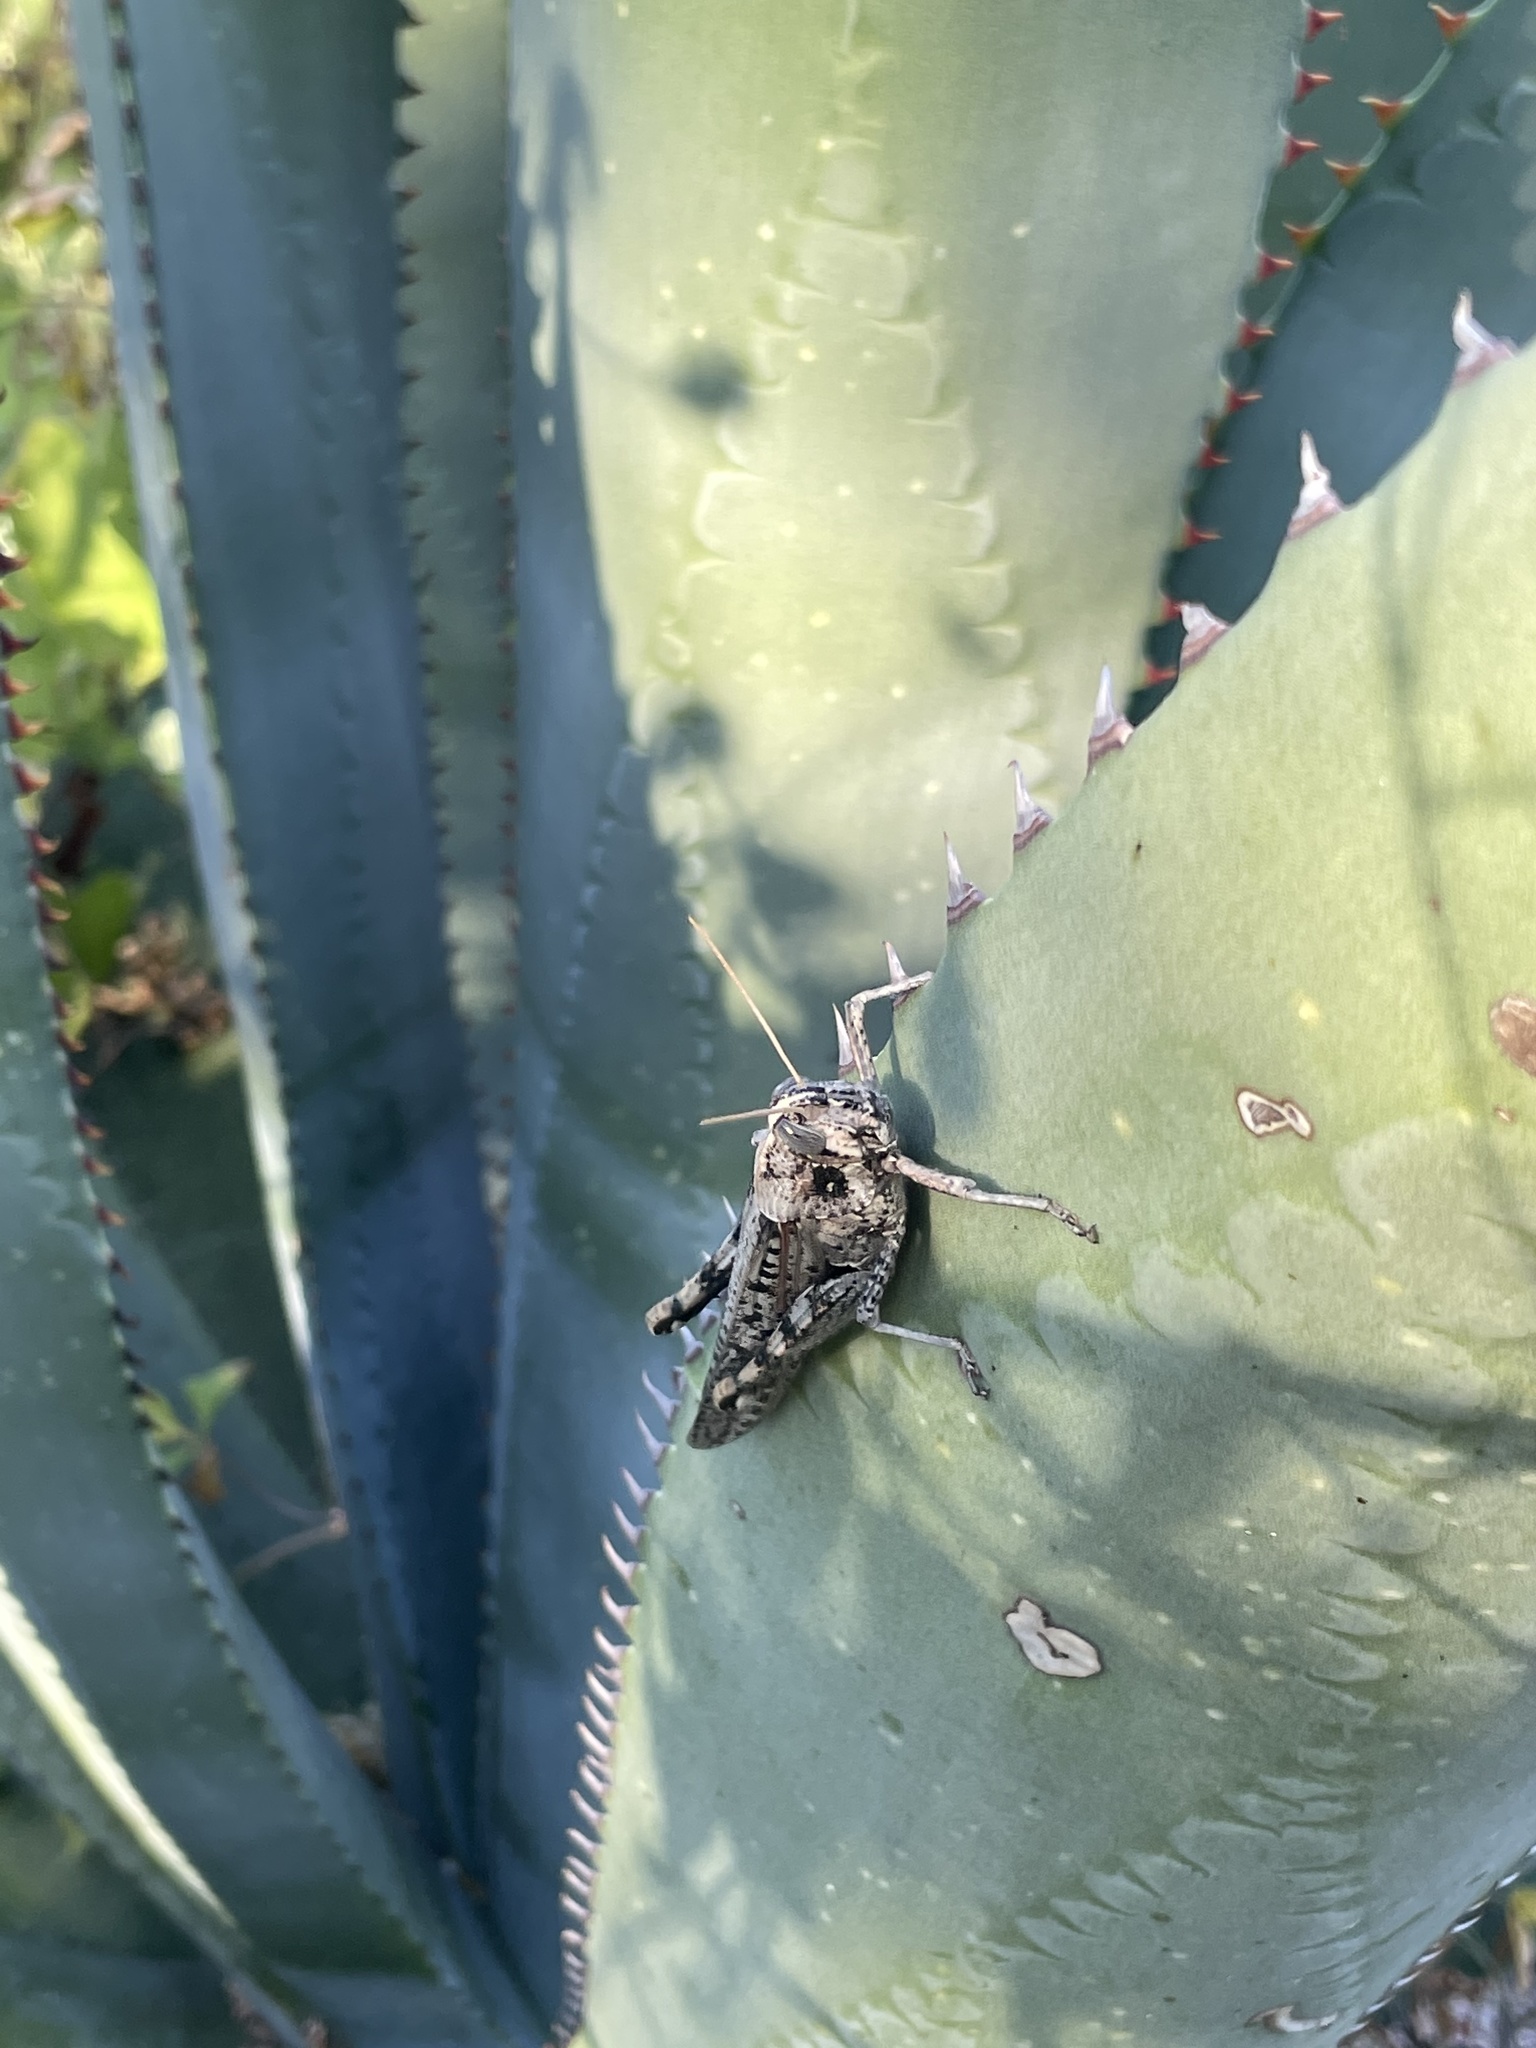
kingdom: Animalia
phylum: Arthropoda
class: Insecta
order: Orthoptera
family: Acrididae
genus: Schistocerca
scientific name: Schistocerca nitens
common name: Vagrant grasshopper
